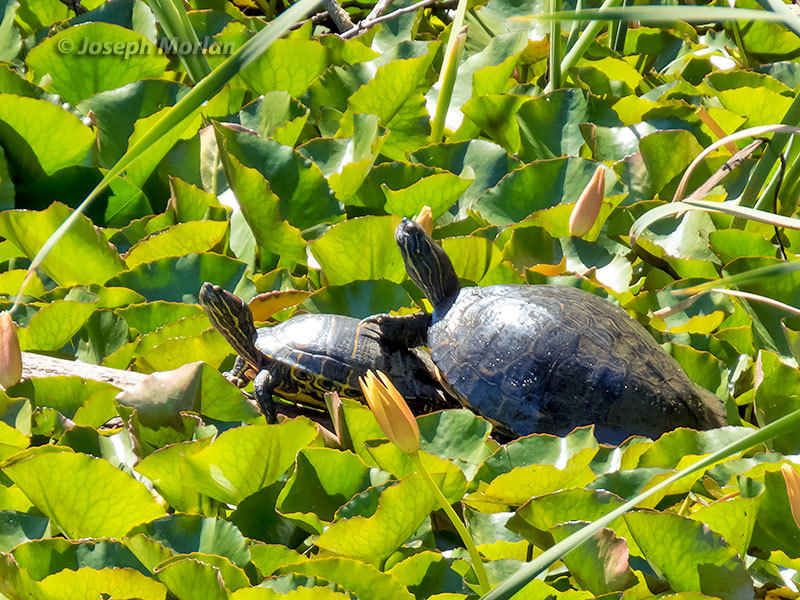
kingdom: Animalia
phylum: Chordata
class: Testudines
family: Emydidae
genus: Trachemys
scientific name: Trachemys scripta
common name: Slider
